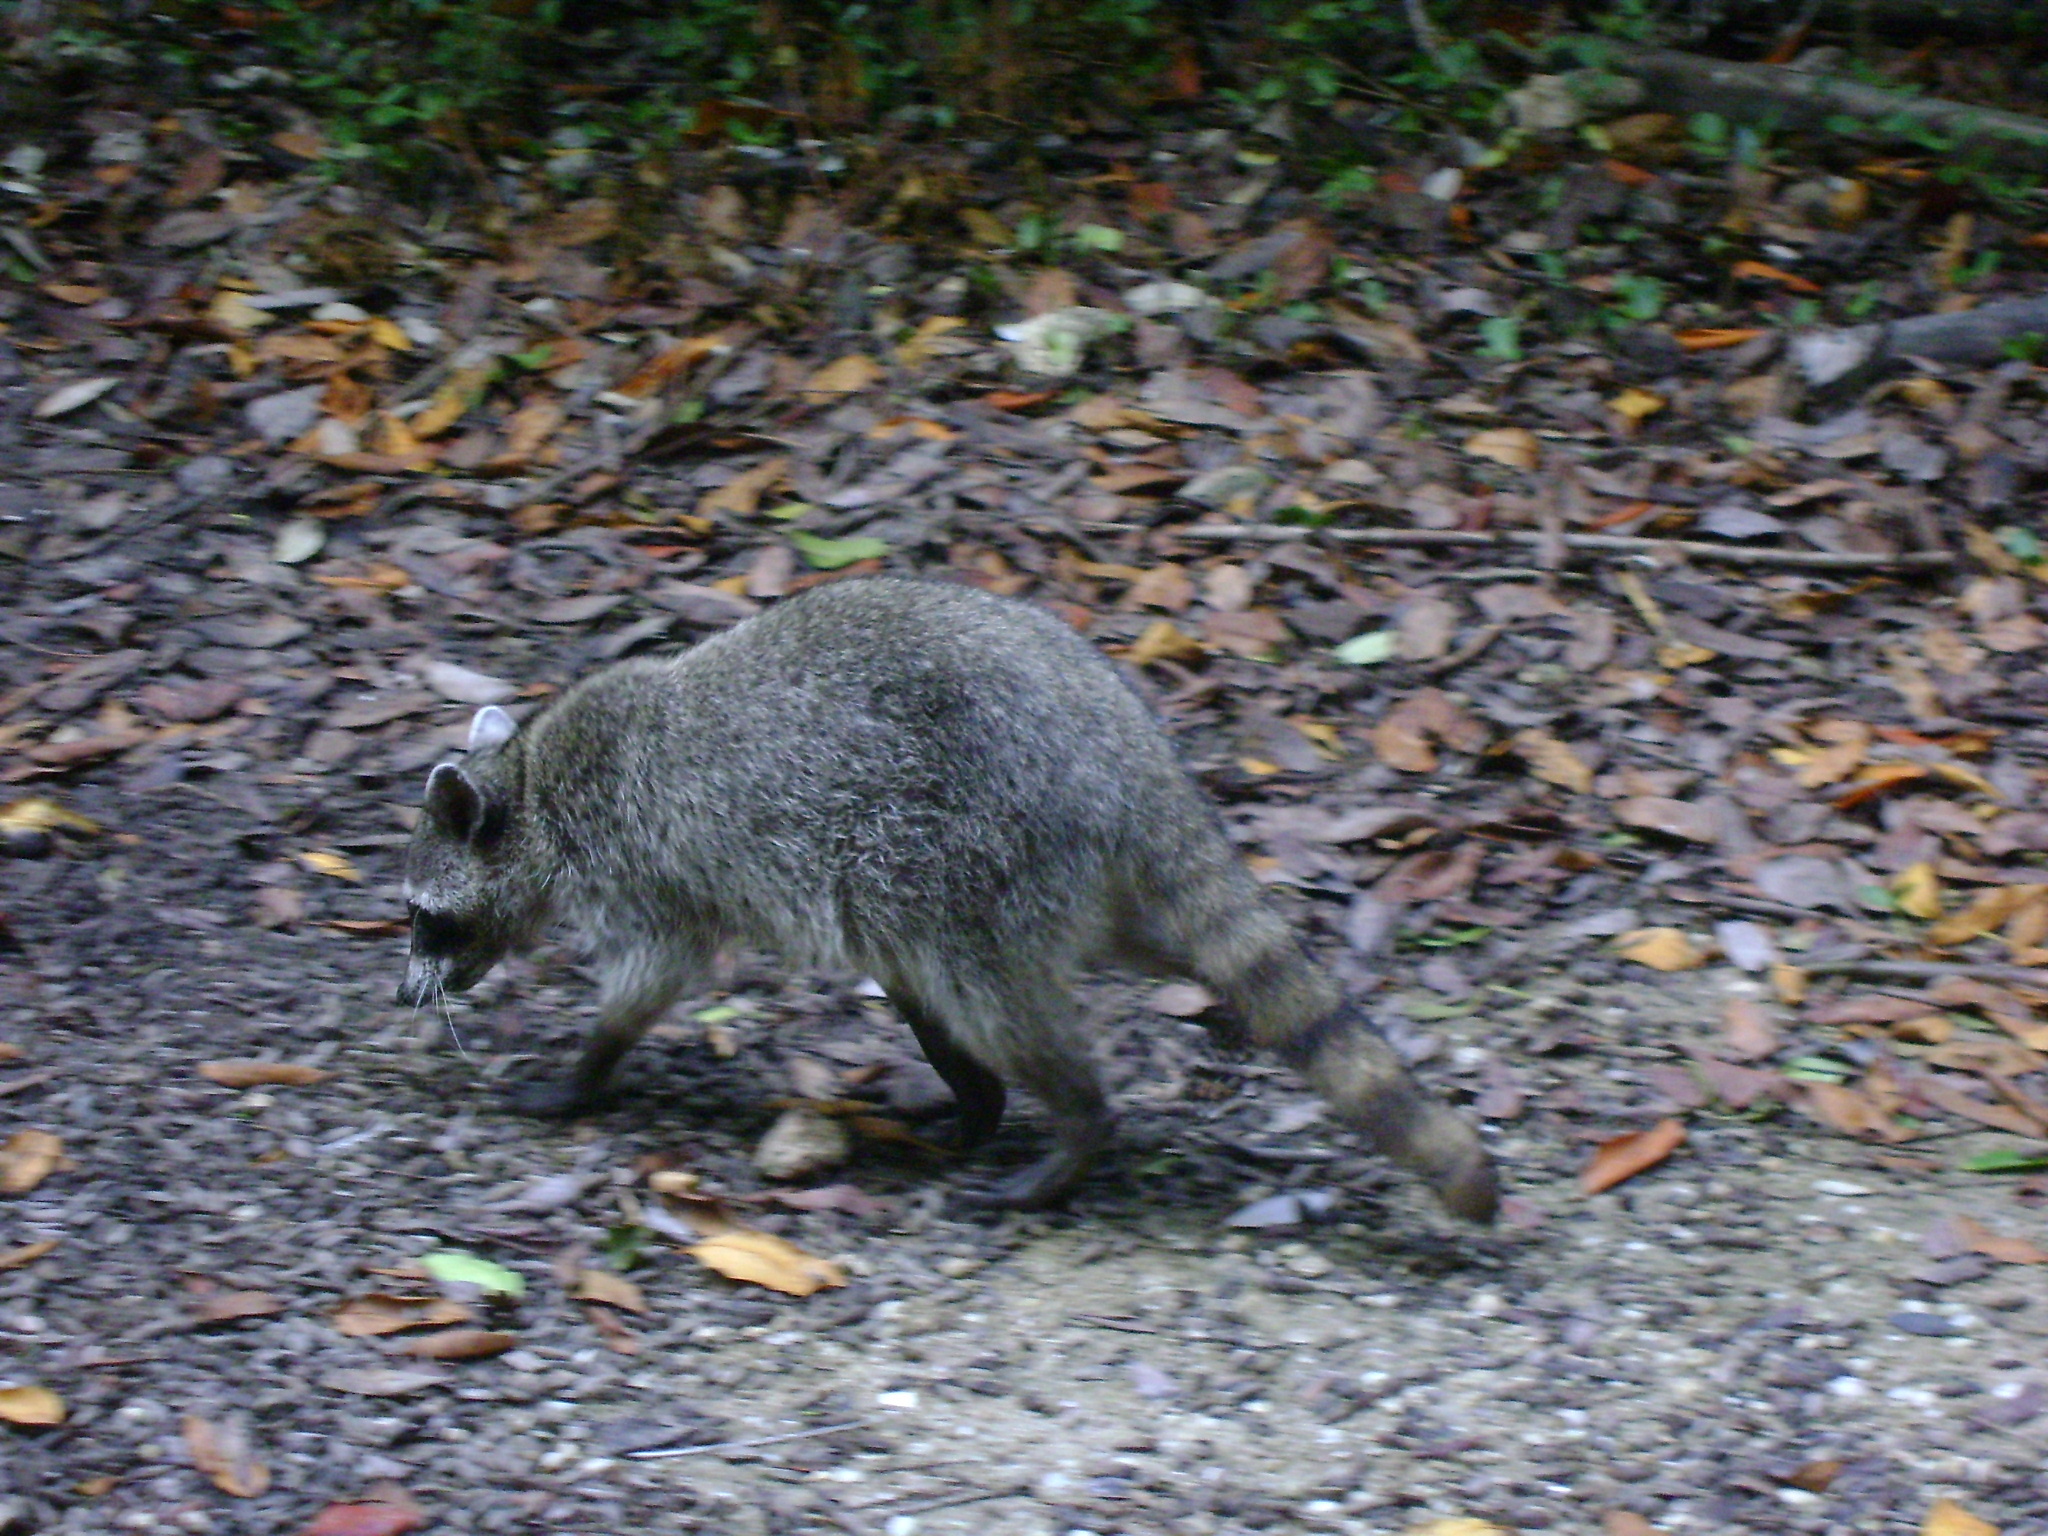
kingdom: Animalia
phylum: Chordata
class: Mammalia
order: Carnivora
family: Procyonidae
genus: Procyon
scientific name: Procyon lotor
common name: Raccoon
